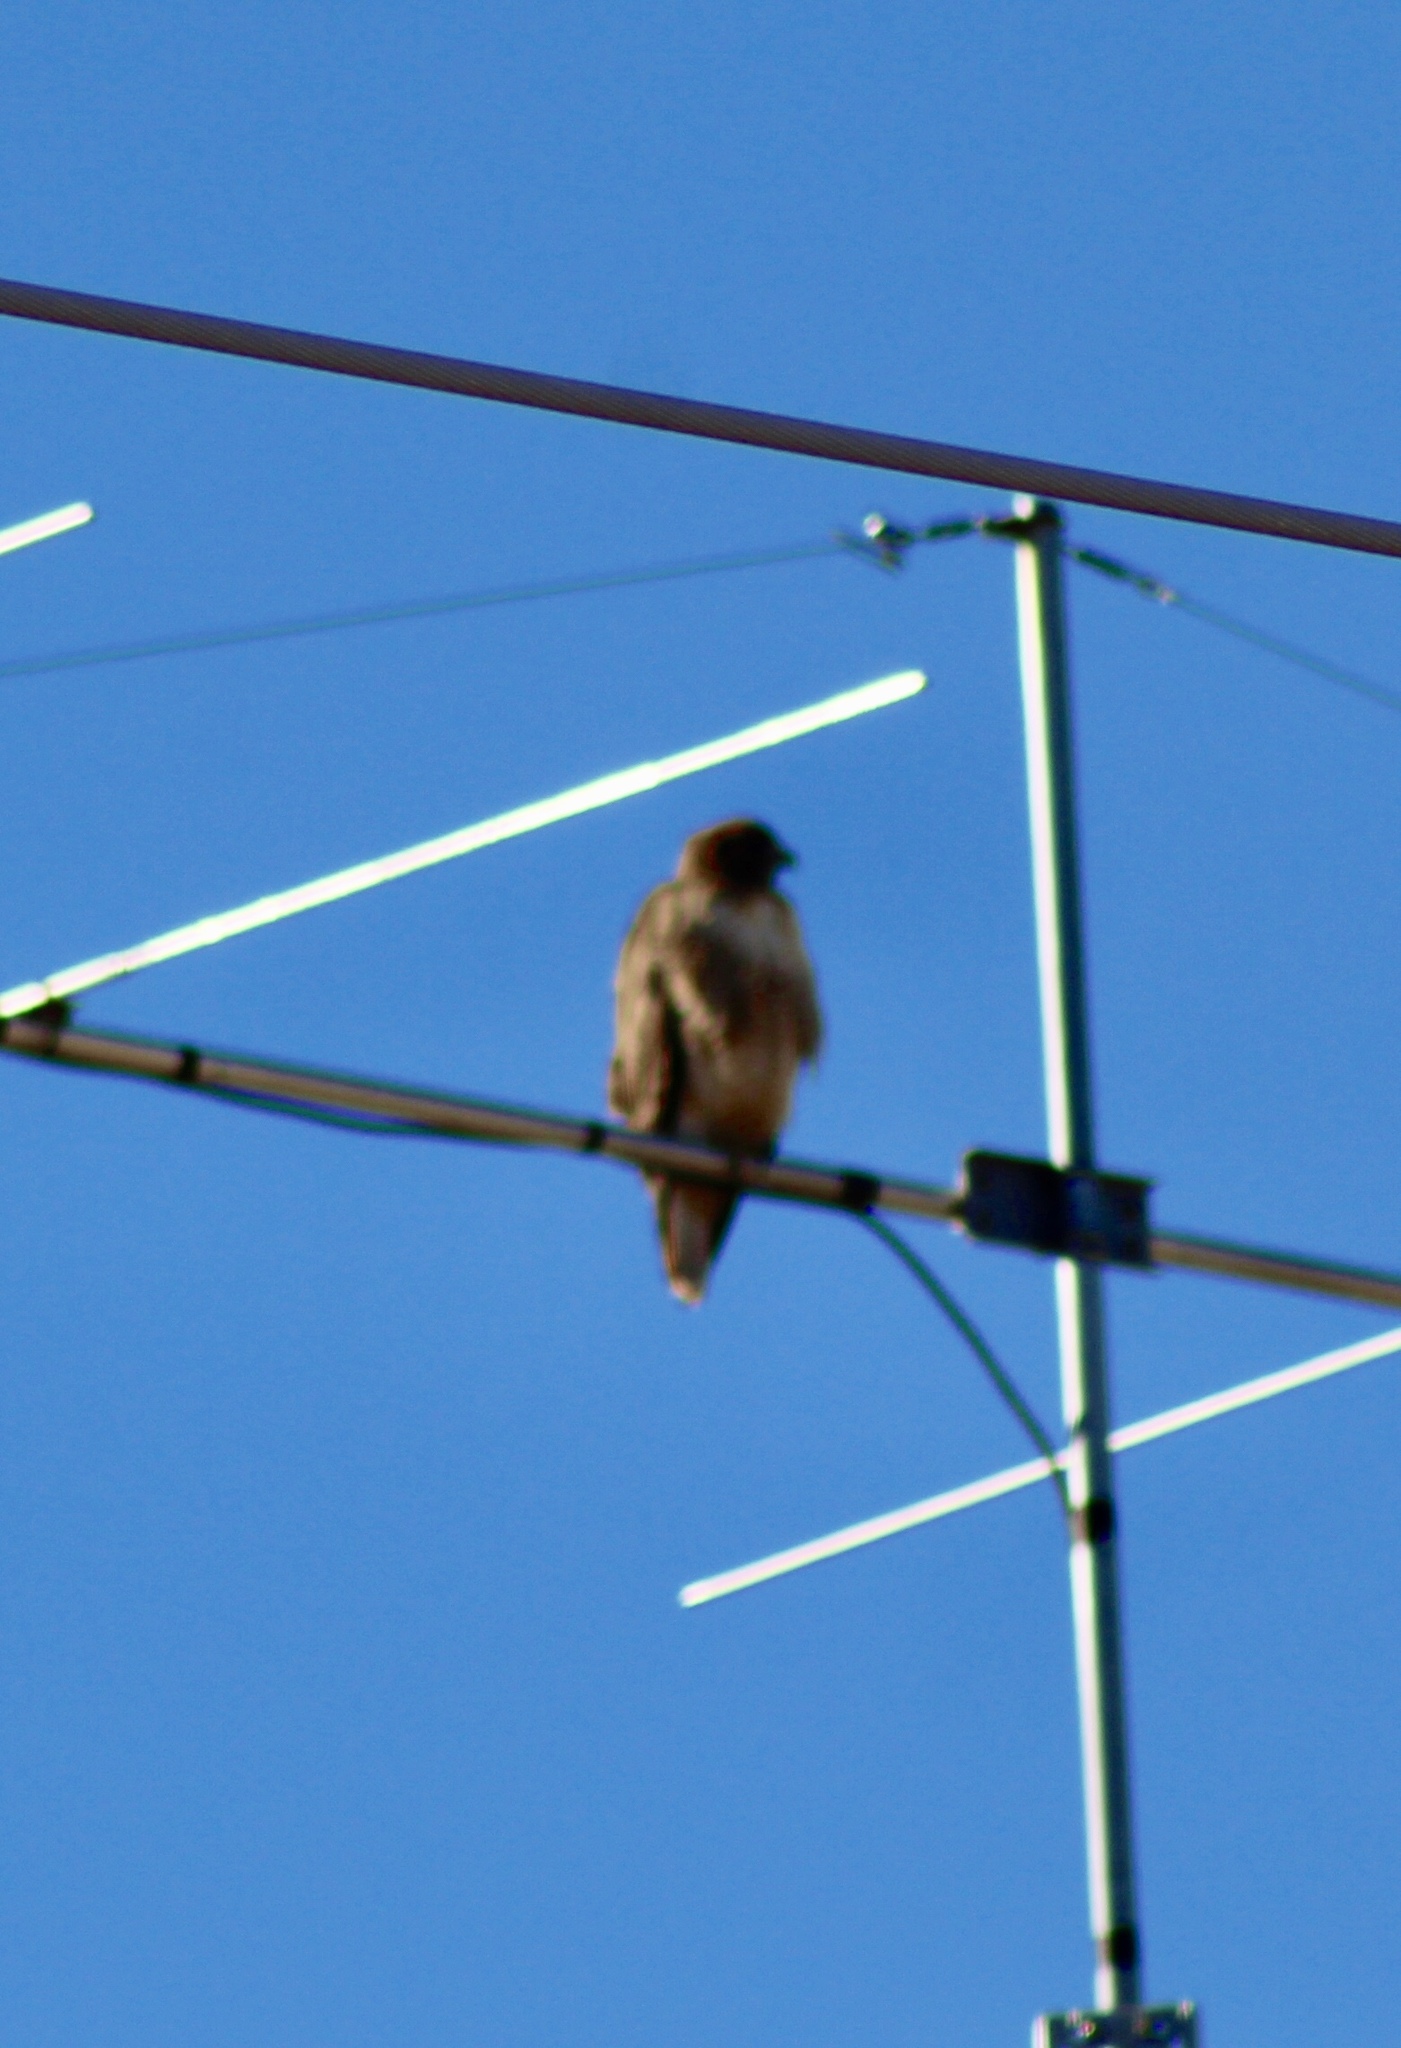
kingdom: Animalia
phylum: Chordata
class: Aves
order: Accipitriformes
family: Accipitridae
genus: Buteo
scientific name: Buteo jamaicensis
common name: Red-tailed hawk
